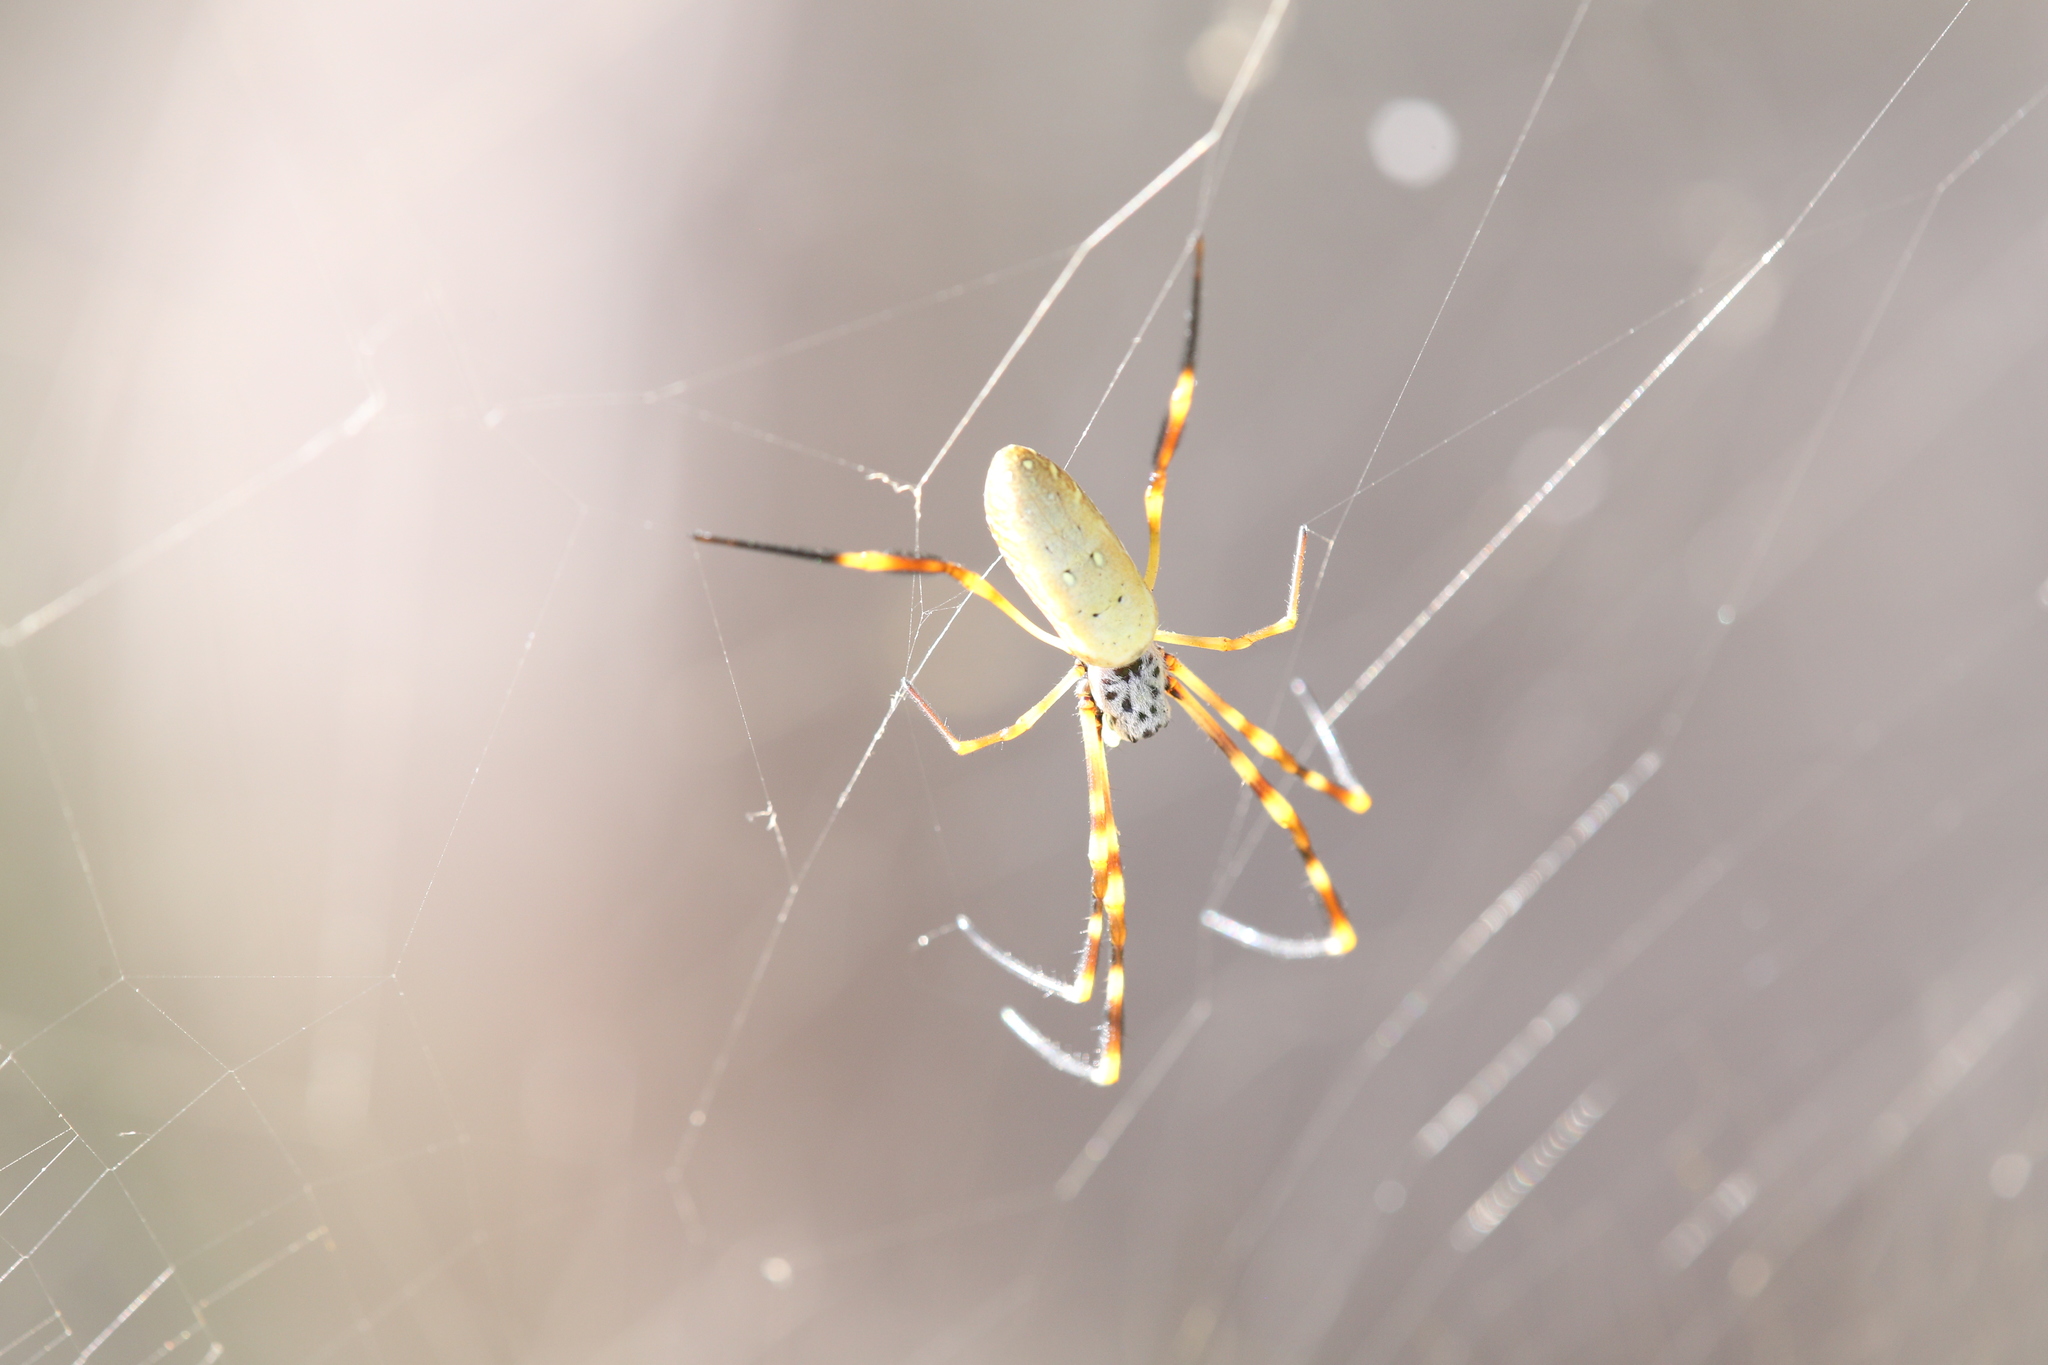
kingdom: Animalia
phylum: Arthropoda
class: Arachnida
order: Araneae
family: Araneidae
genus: Trichonephila
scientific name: Trichonephila plumipes
